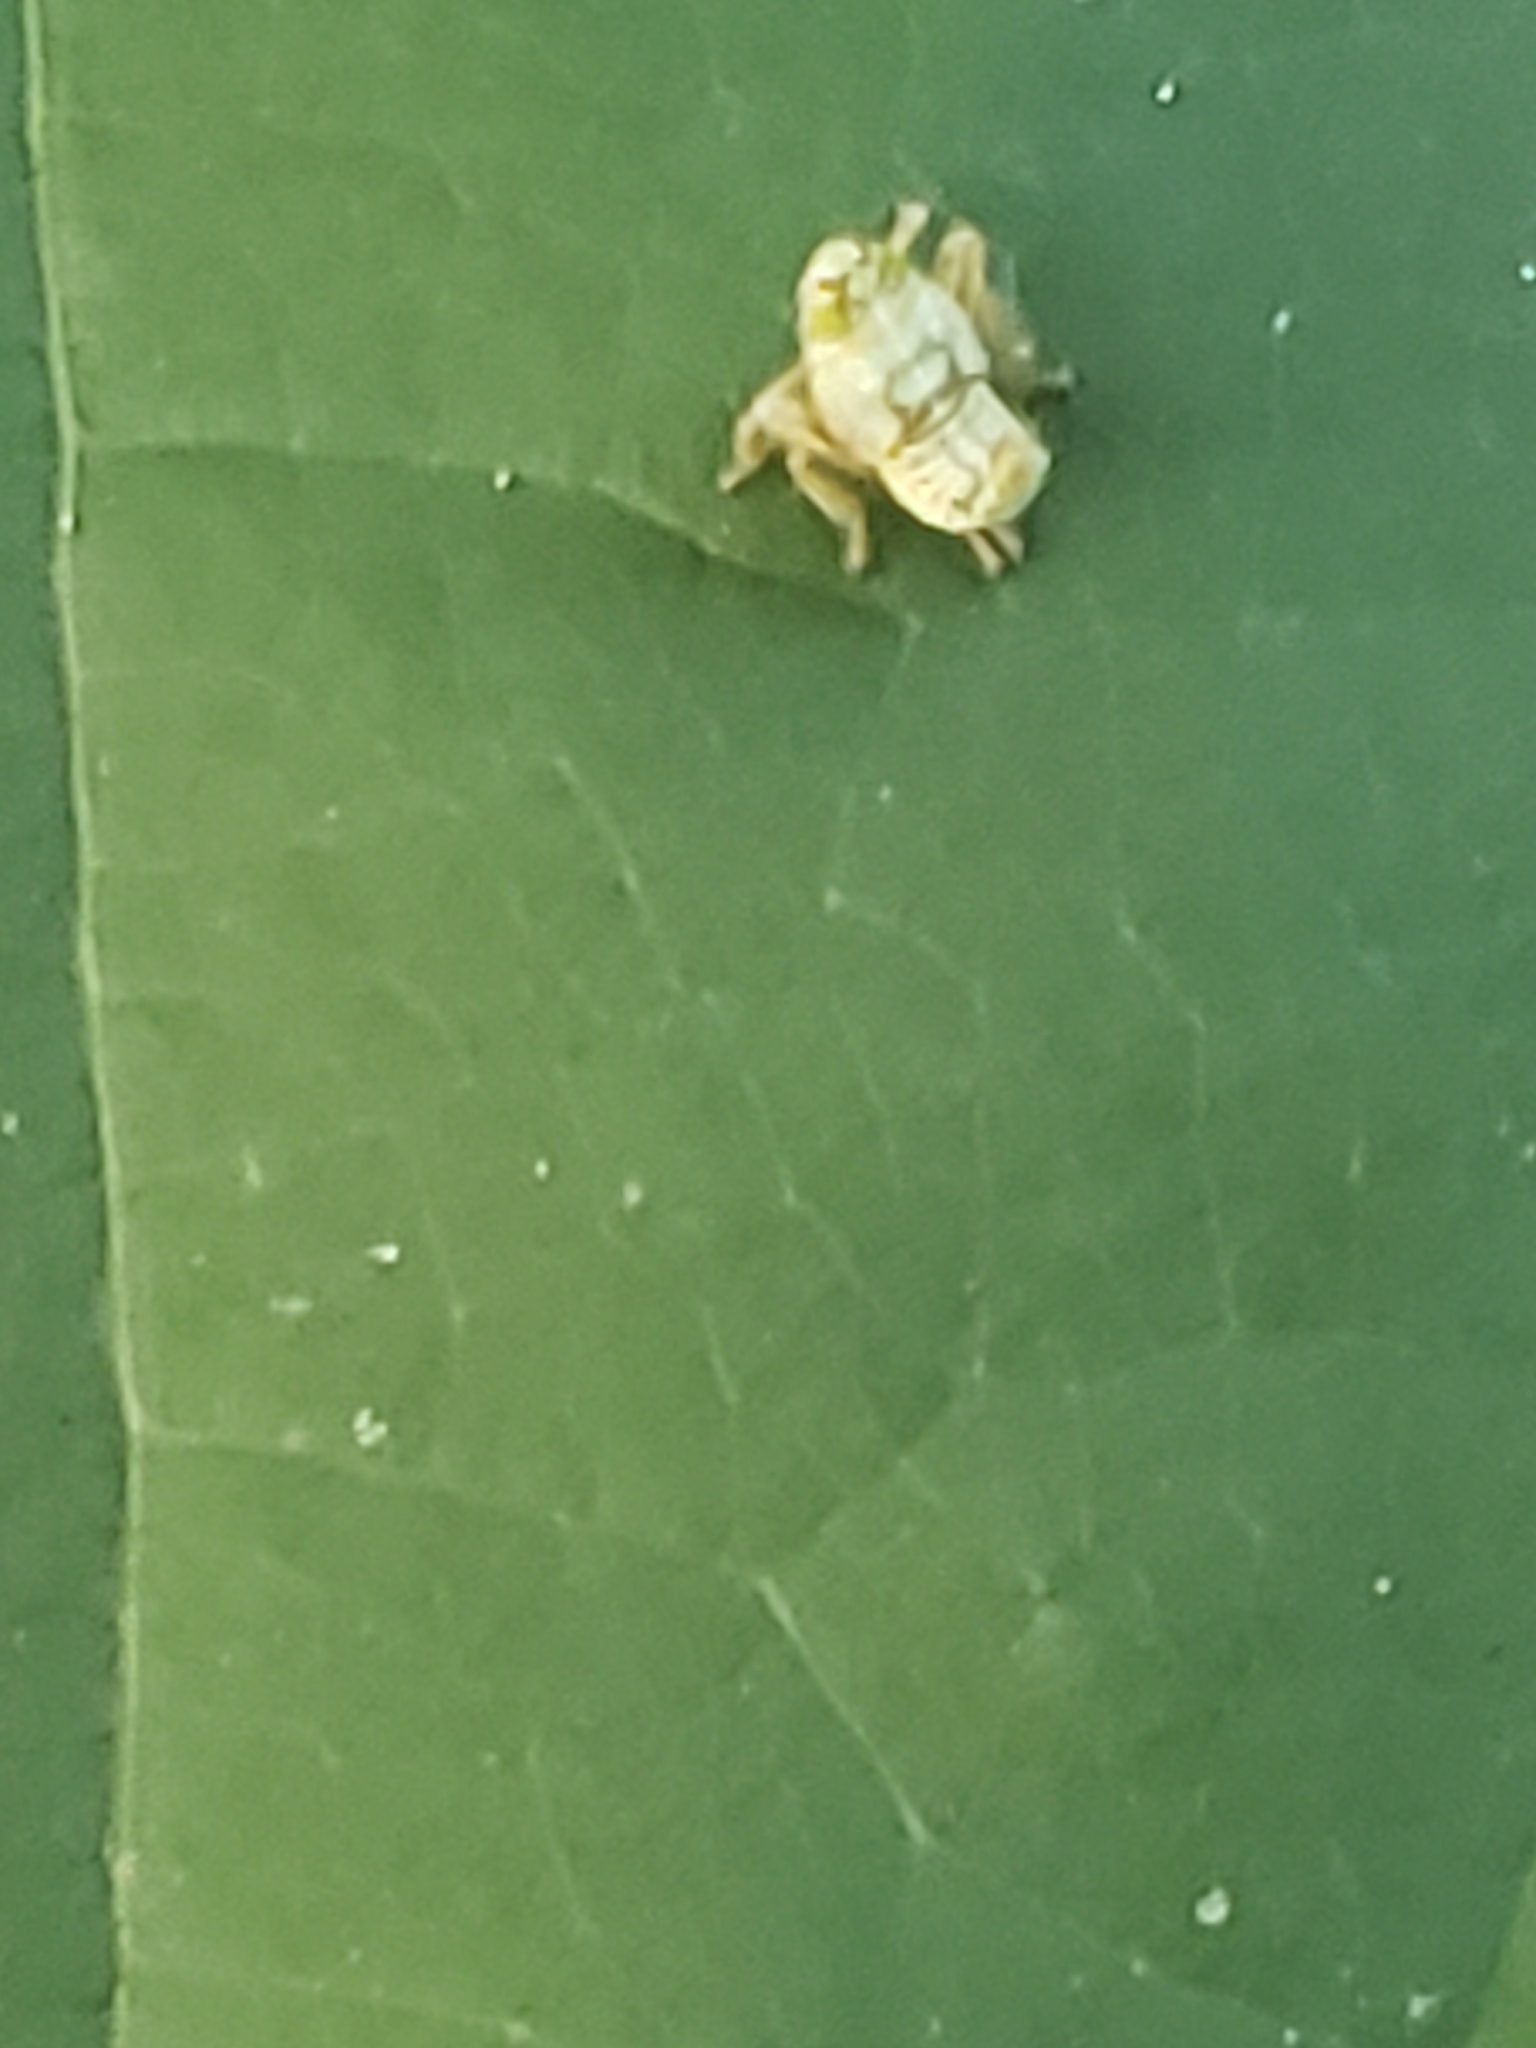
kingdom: Animalia
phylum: Arthropoda
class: Insecta
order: Hemiptera
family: Cicadellidae
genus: Jikradia
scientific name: Jikradia olitoria
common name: Coppery leafhopper
